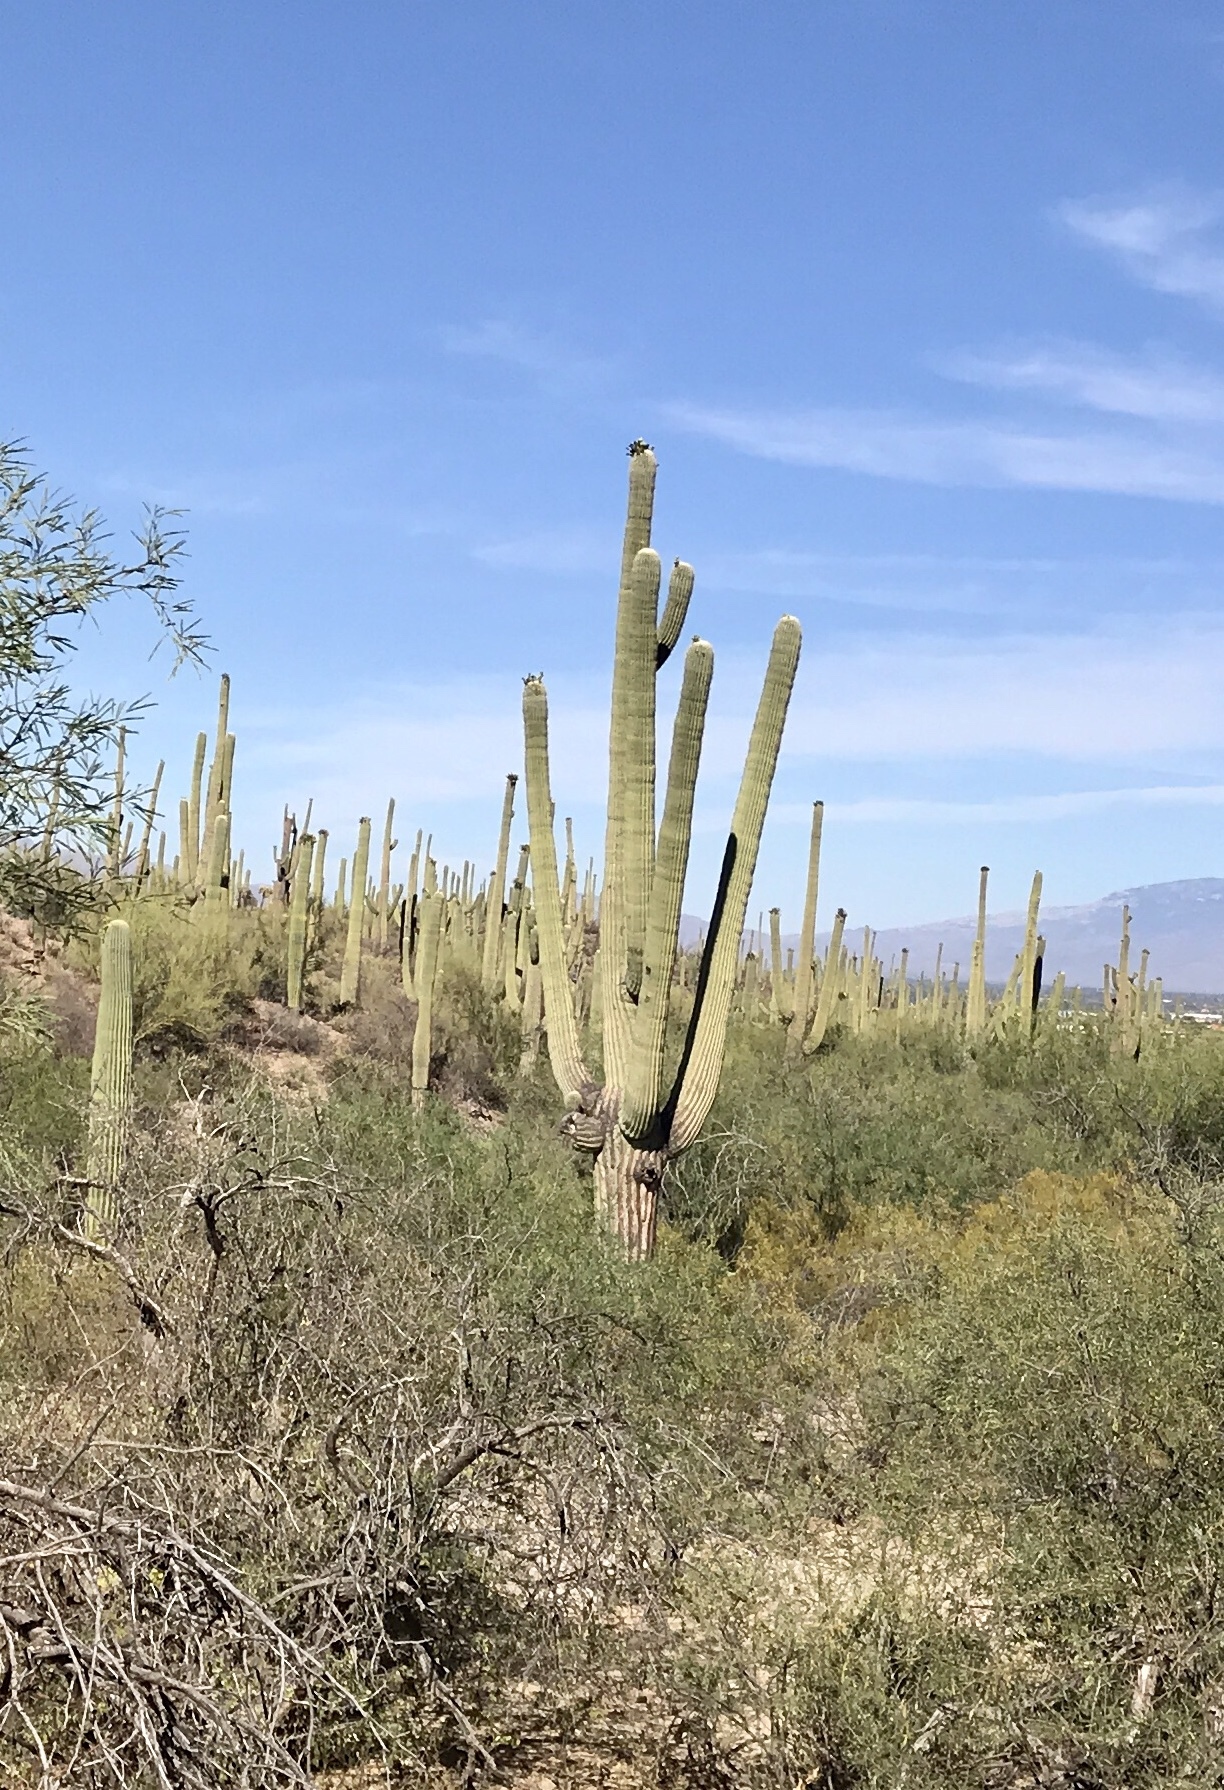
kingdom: Plantae
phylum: Tracheophyta
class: Magnoliopsida
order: Caryophyllales
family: Cactaceae
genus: Carnegiea
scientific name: Carnegiea gigantea
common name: Saguaro
